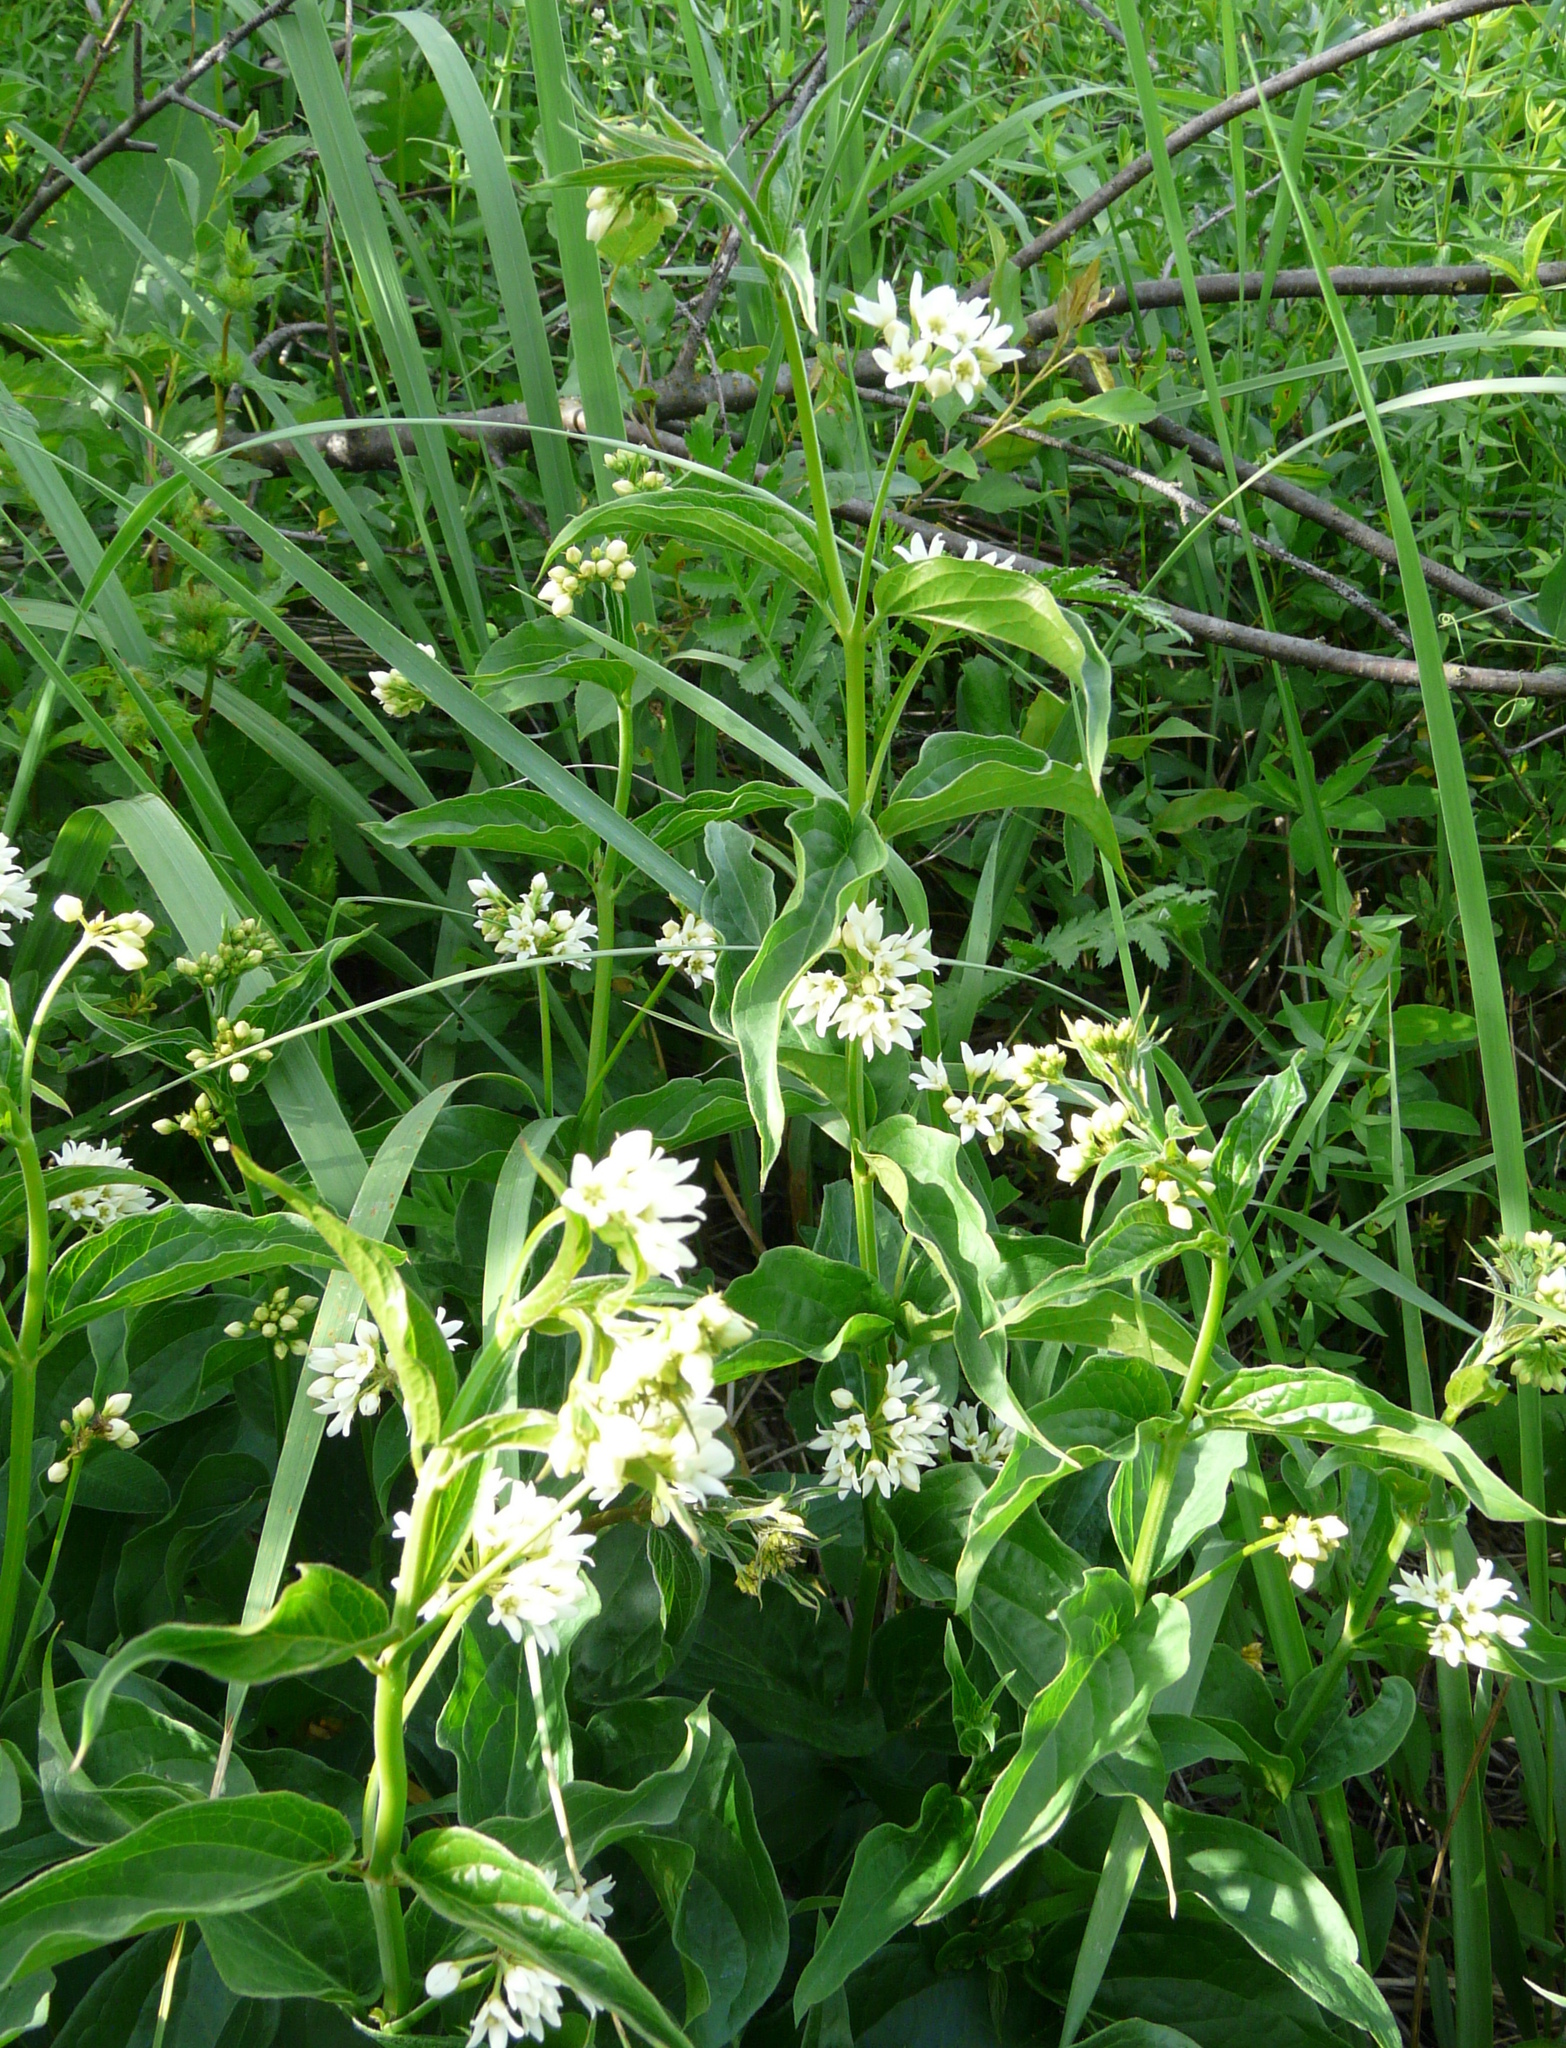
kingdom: Plantae
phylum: Tracheophyta
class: Magnoliopsida
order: Gentianales
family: Apocynaceae
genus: Vincetoxicum
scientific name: Vincetoxicum hirundinaria
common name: White swallowwort
